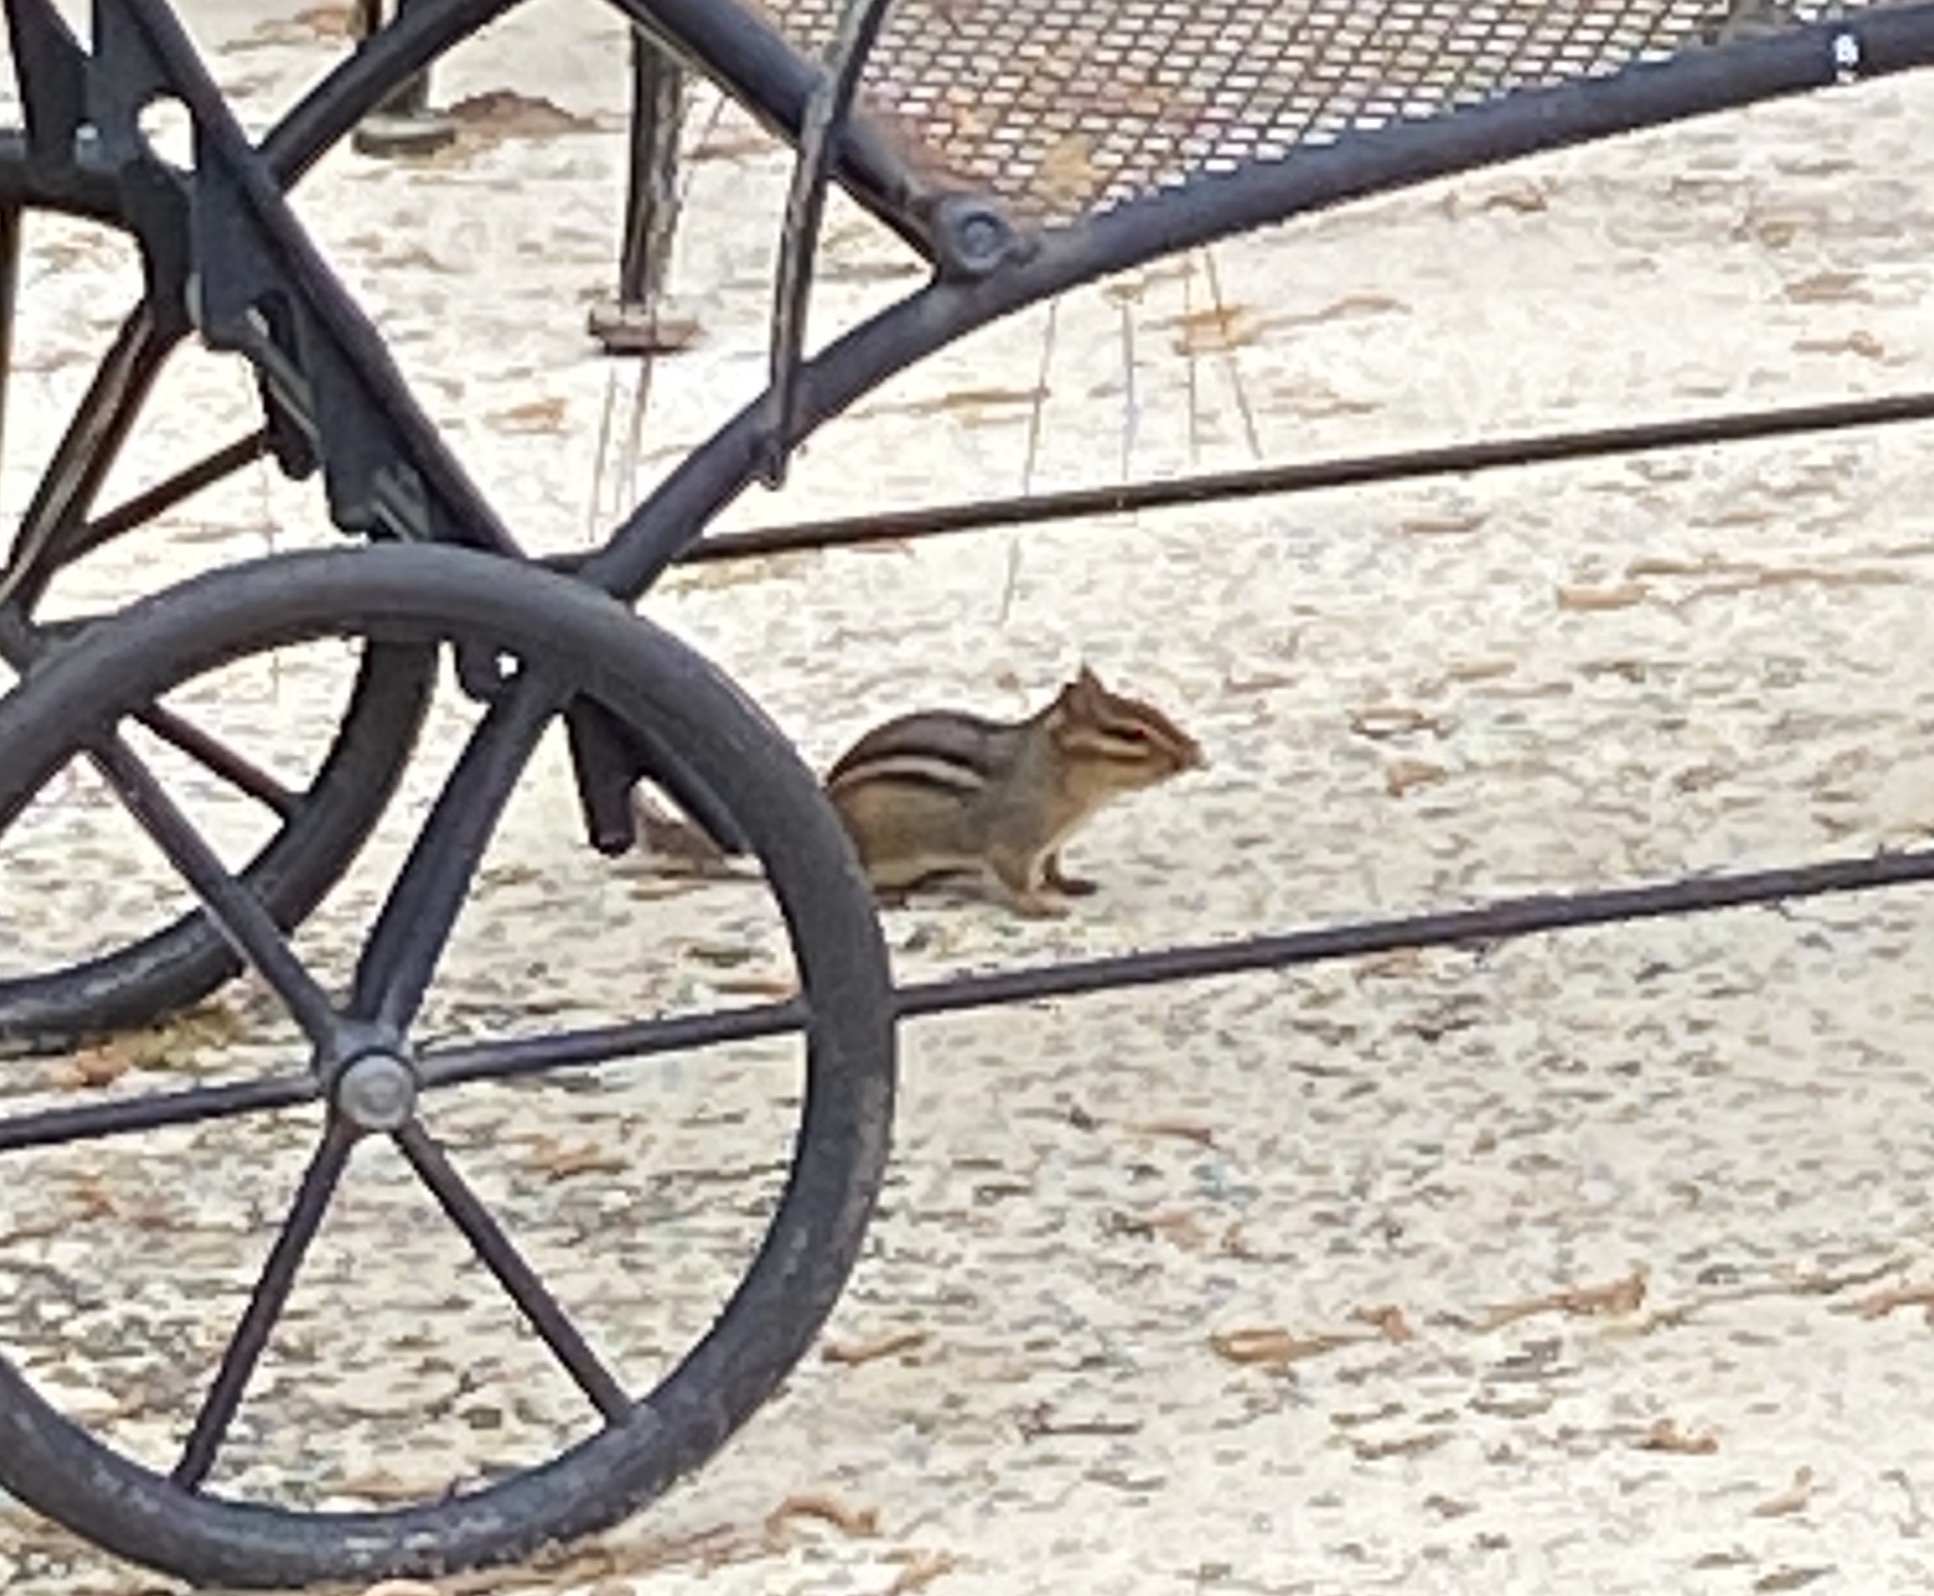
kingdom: Animalia
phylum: Chordata
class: Mammalia
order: Rodentia
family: Sciuridae
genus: Tamias
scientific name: Tamias striatus
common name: Eastern chipmunk
